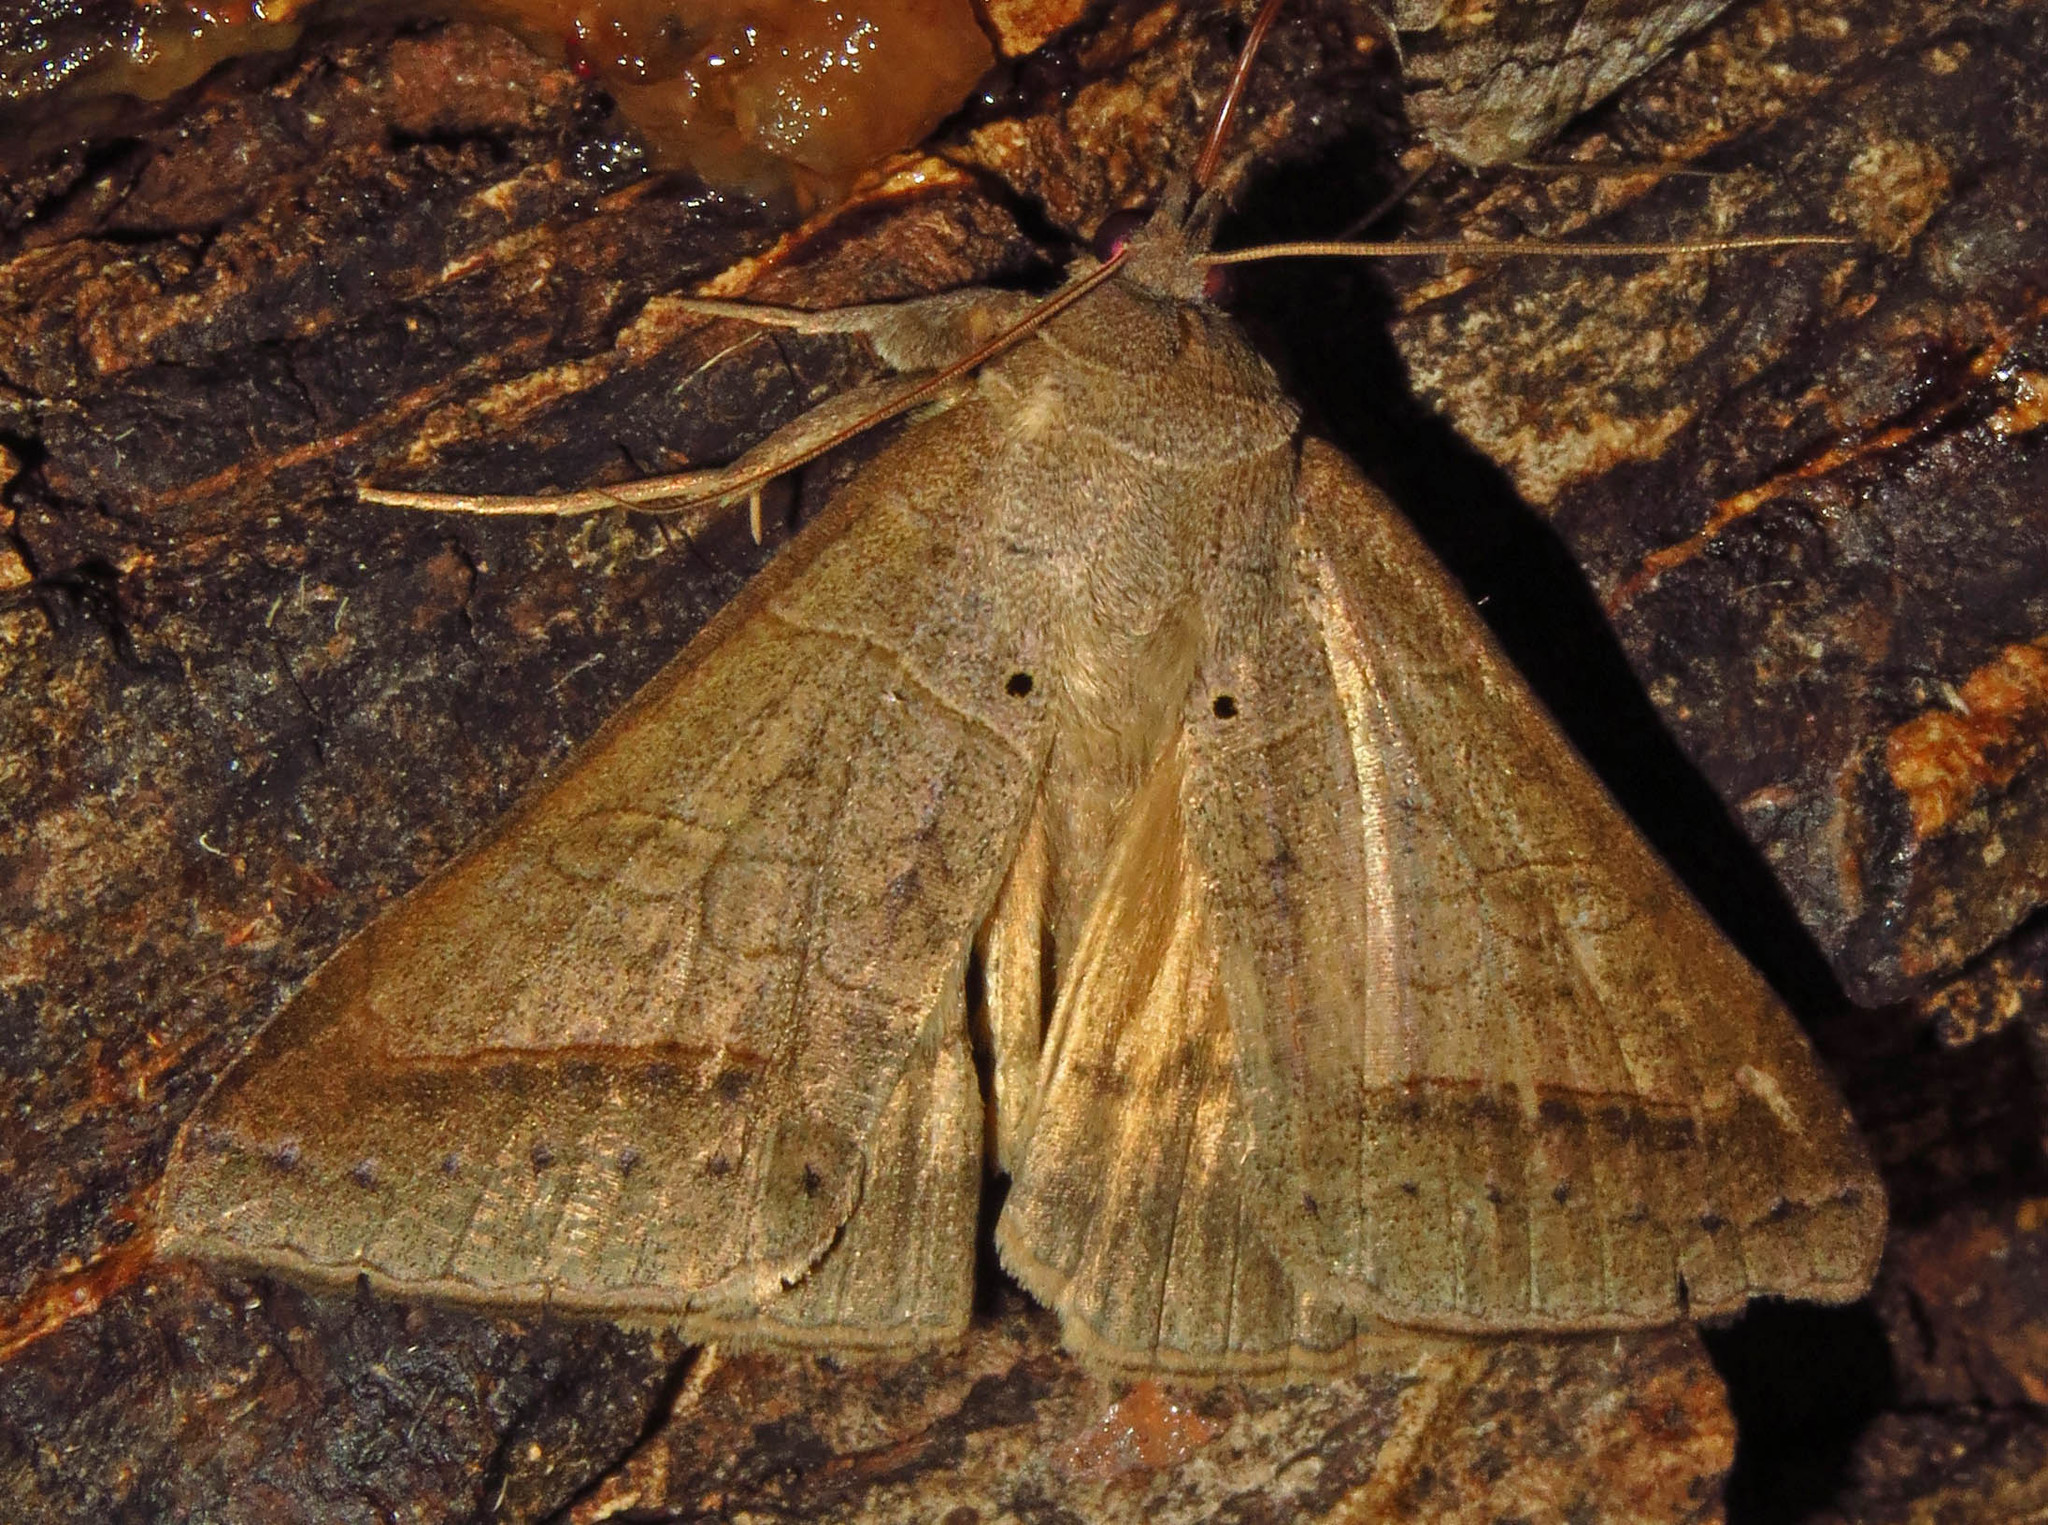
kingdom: Animalia
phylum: Arthropoda
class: Insecta
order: Lepidoptera
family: Erebidae
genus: Mocis
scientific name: Mocis marcida
